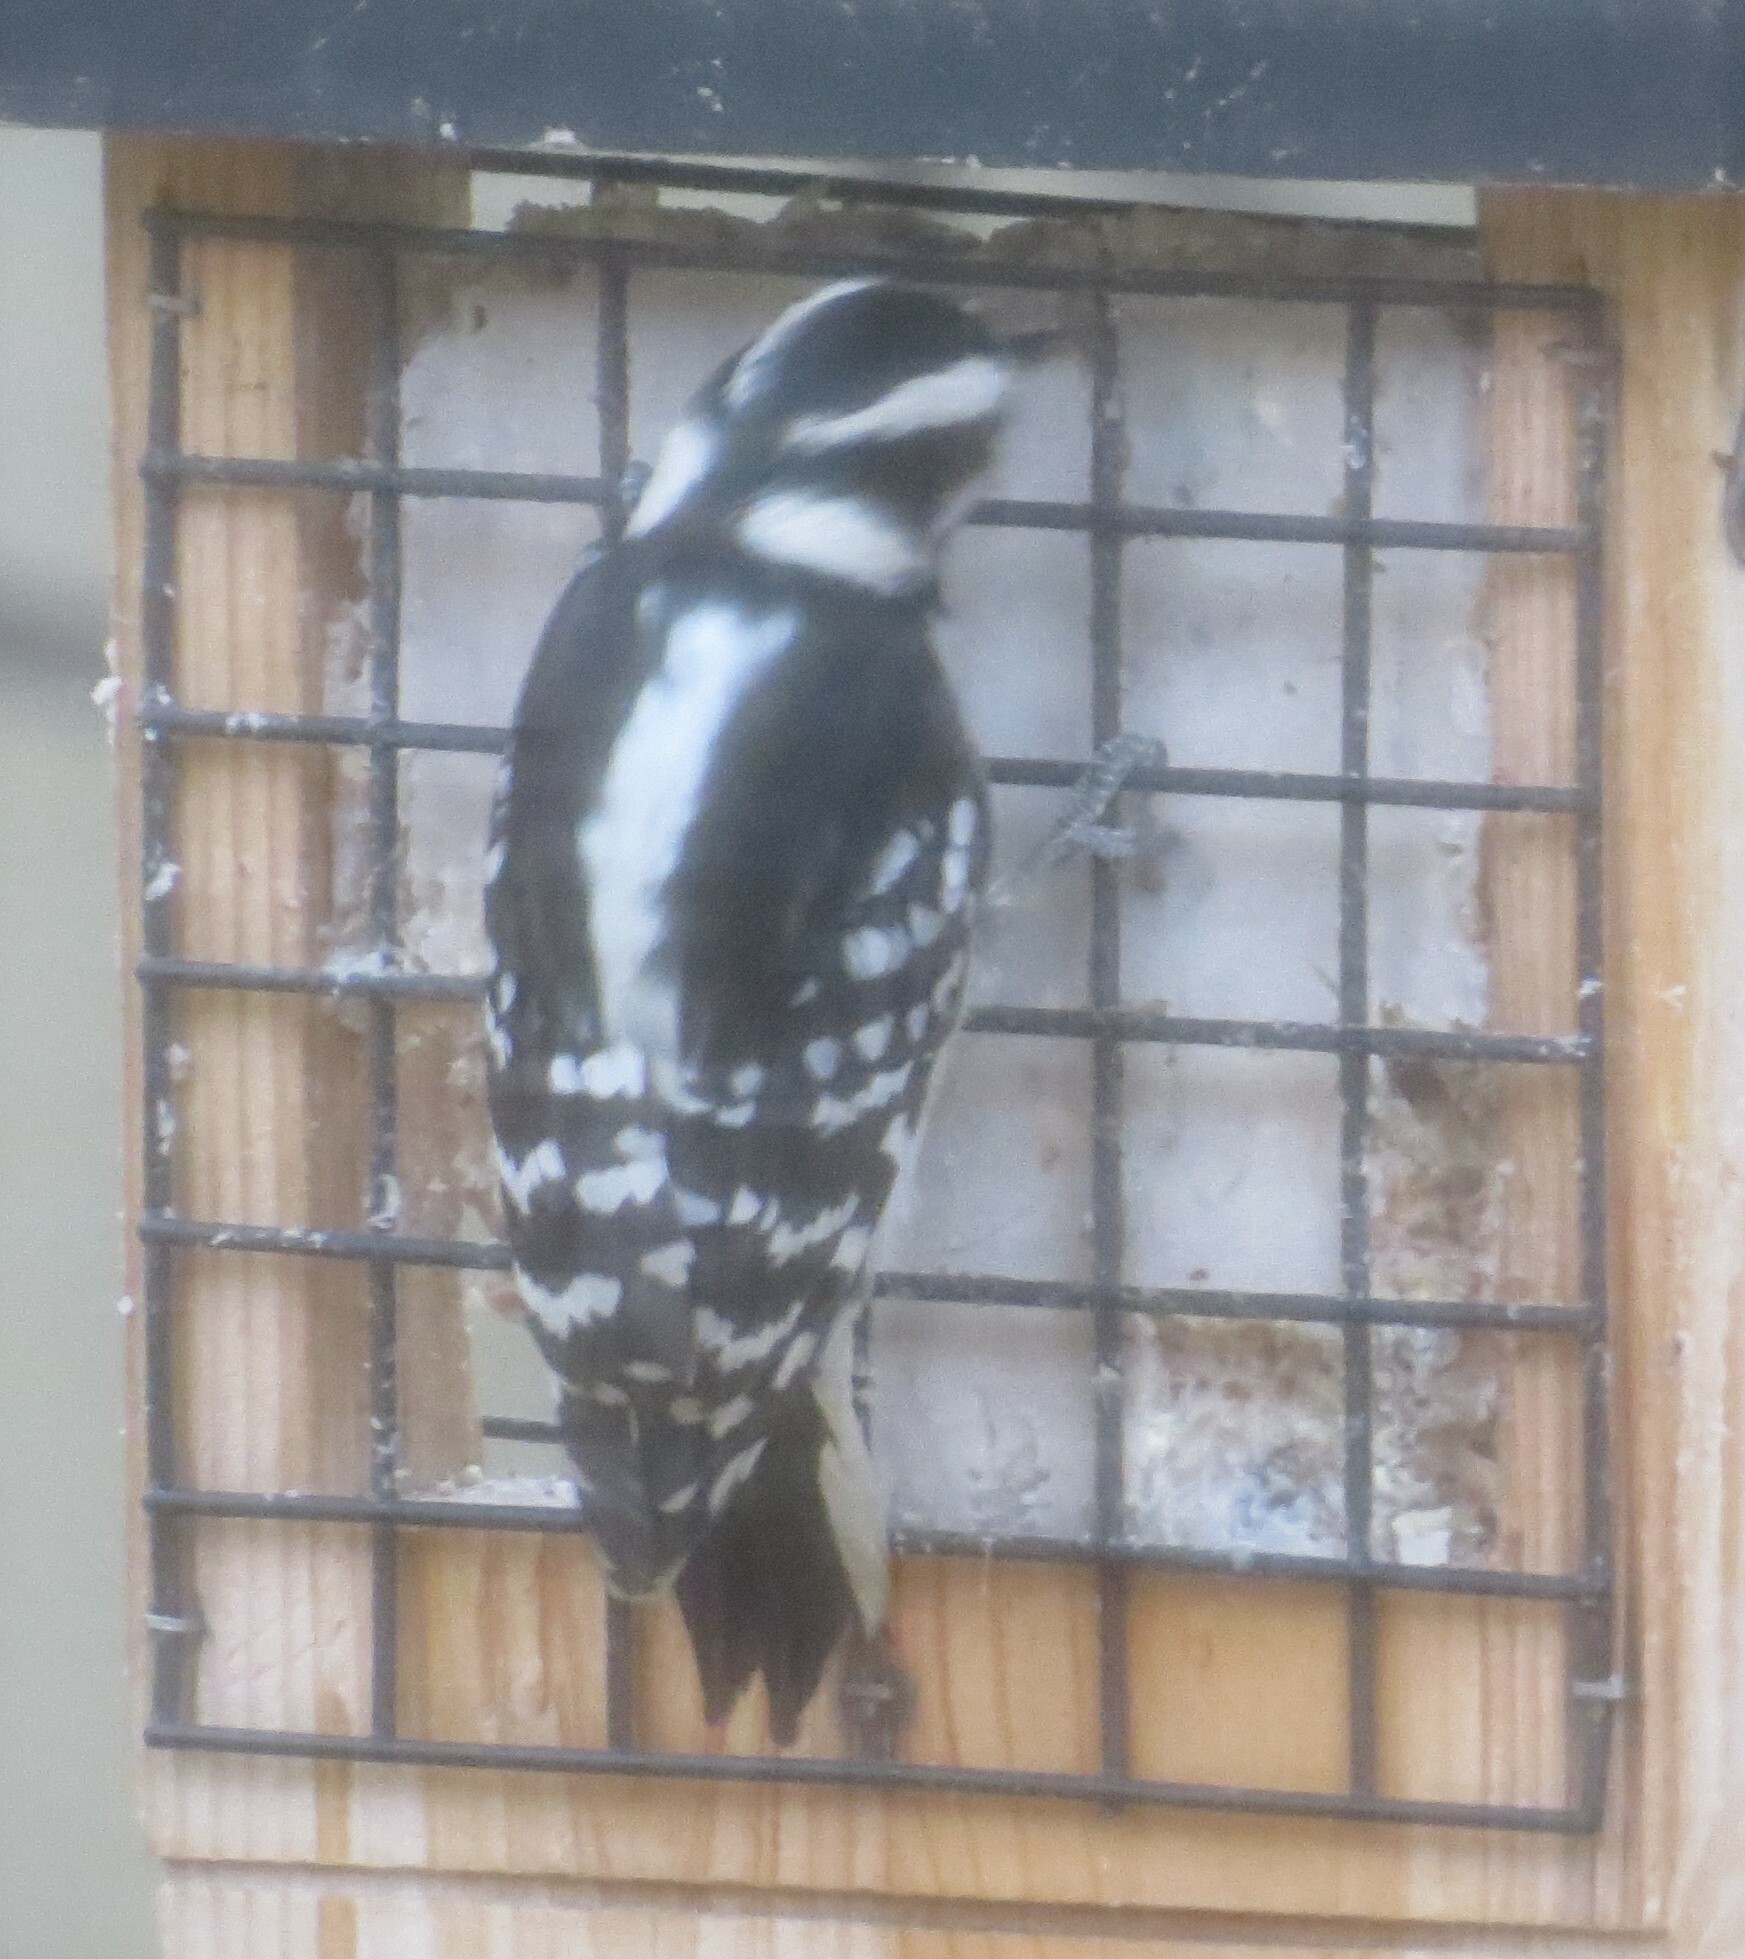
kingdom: Animalia
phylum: Chordata
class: Aves
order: Piciformes
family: Picidae
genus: Dryobates
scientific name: Dryobates pubescens
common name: Downy woodpecker
